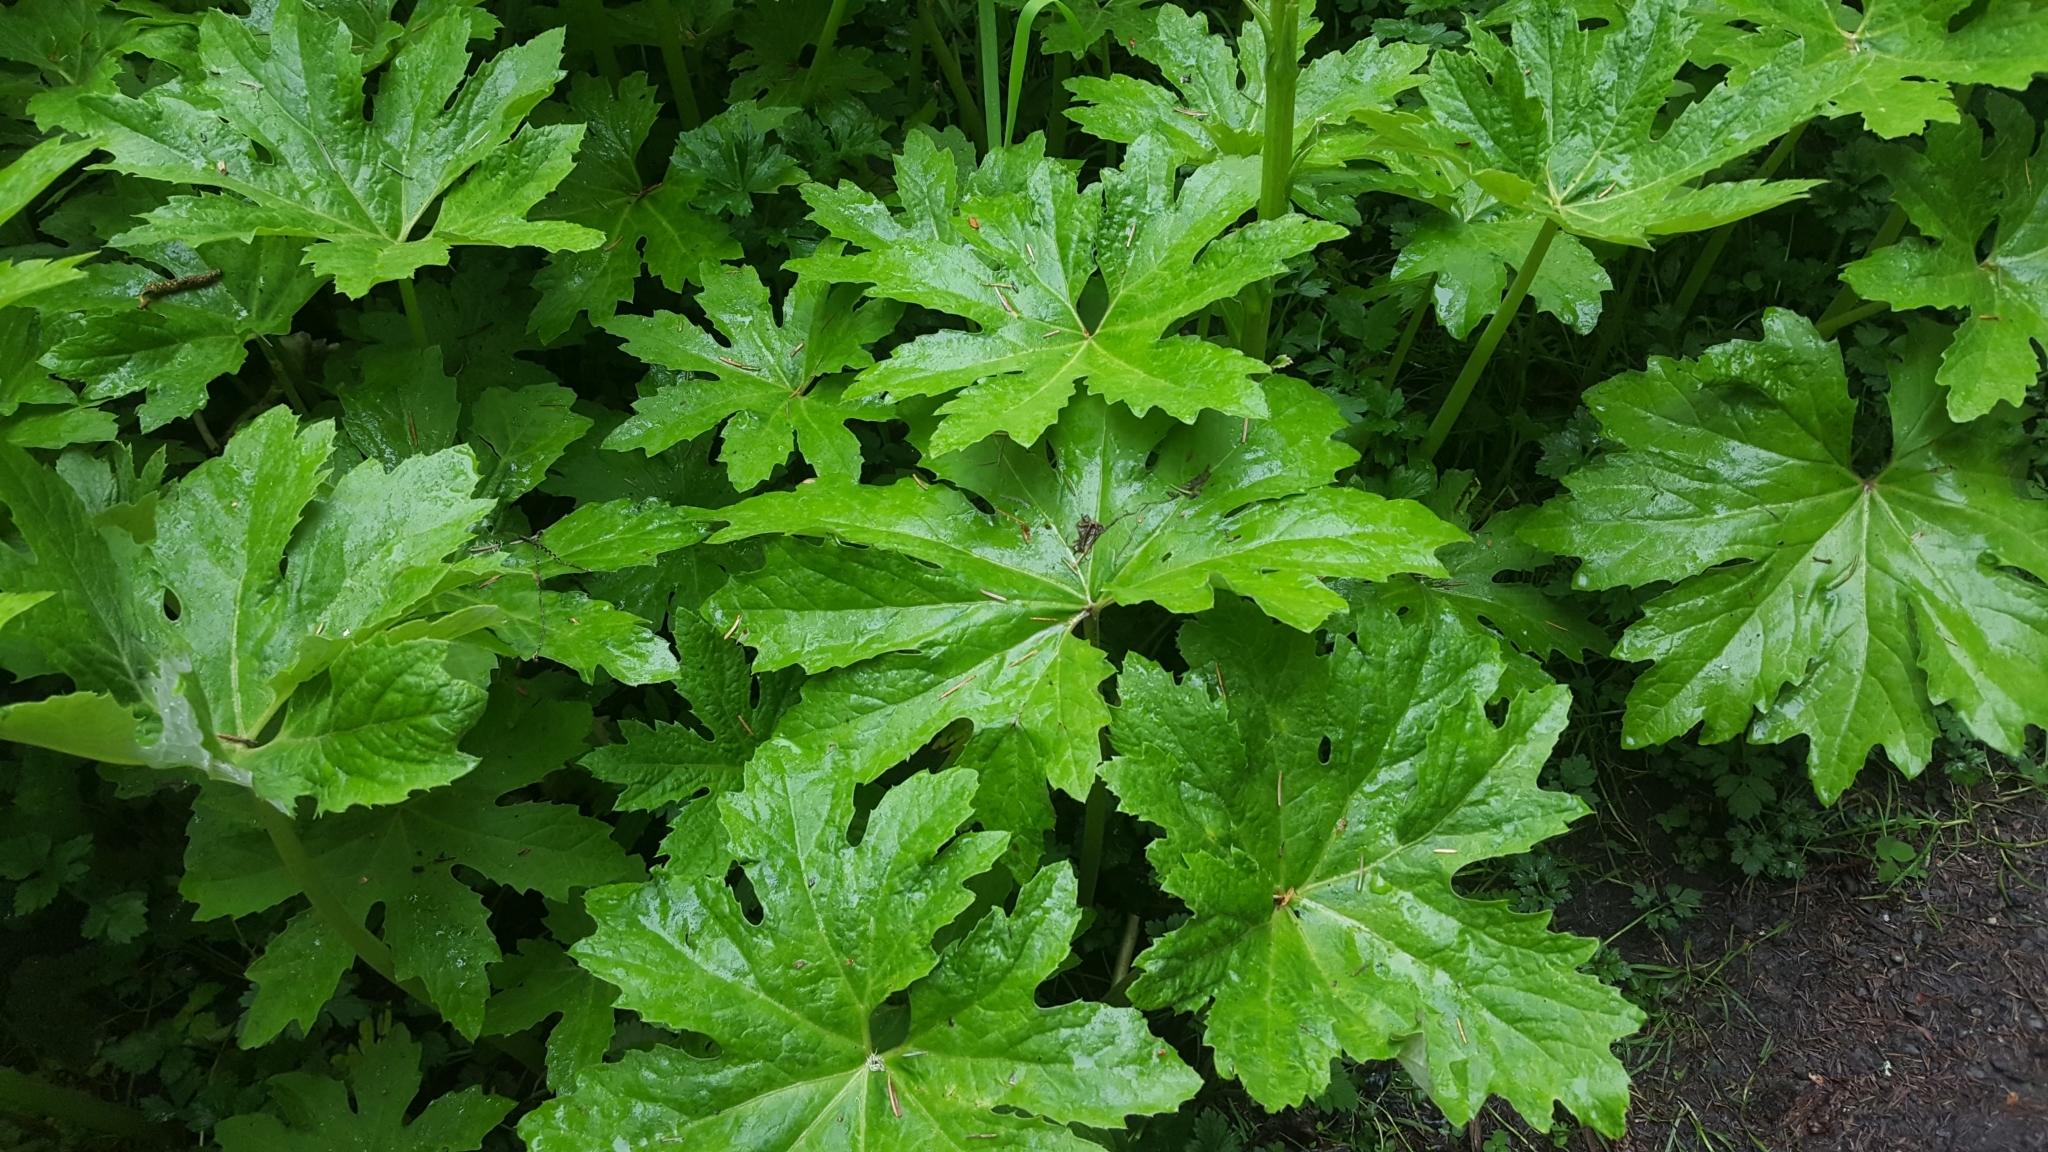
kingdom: Plantae
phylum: Tracheophyta
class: Magnoliopsida
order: Asterales
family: Asteraceae
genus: Petasites
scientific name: Petasites frigidus
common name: Arctic butterbur
